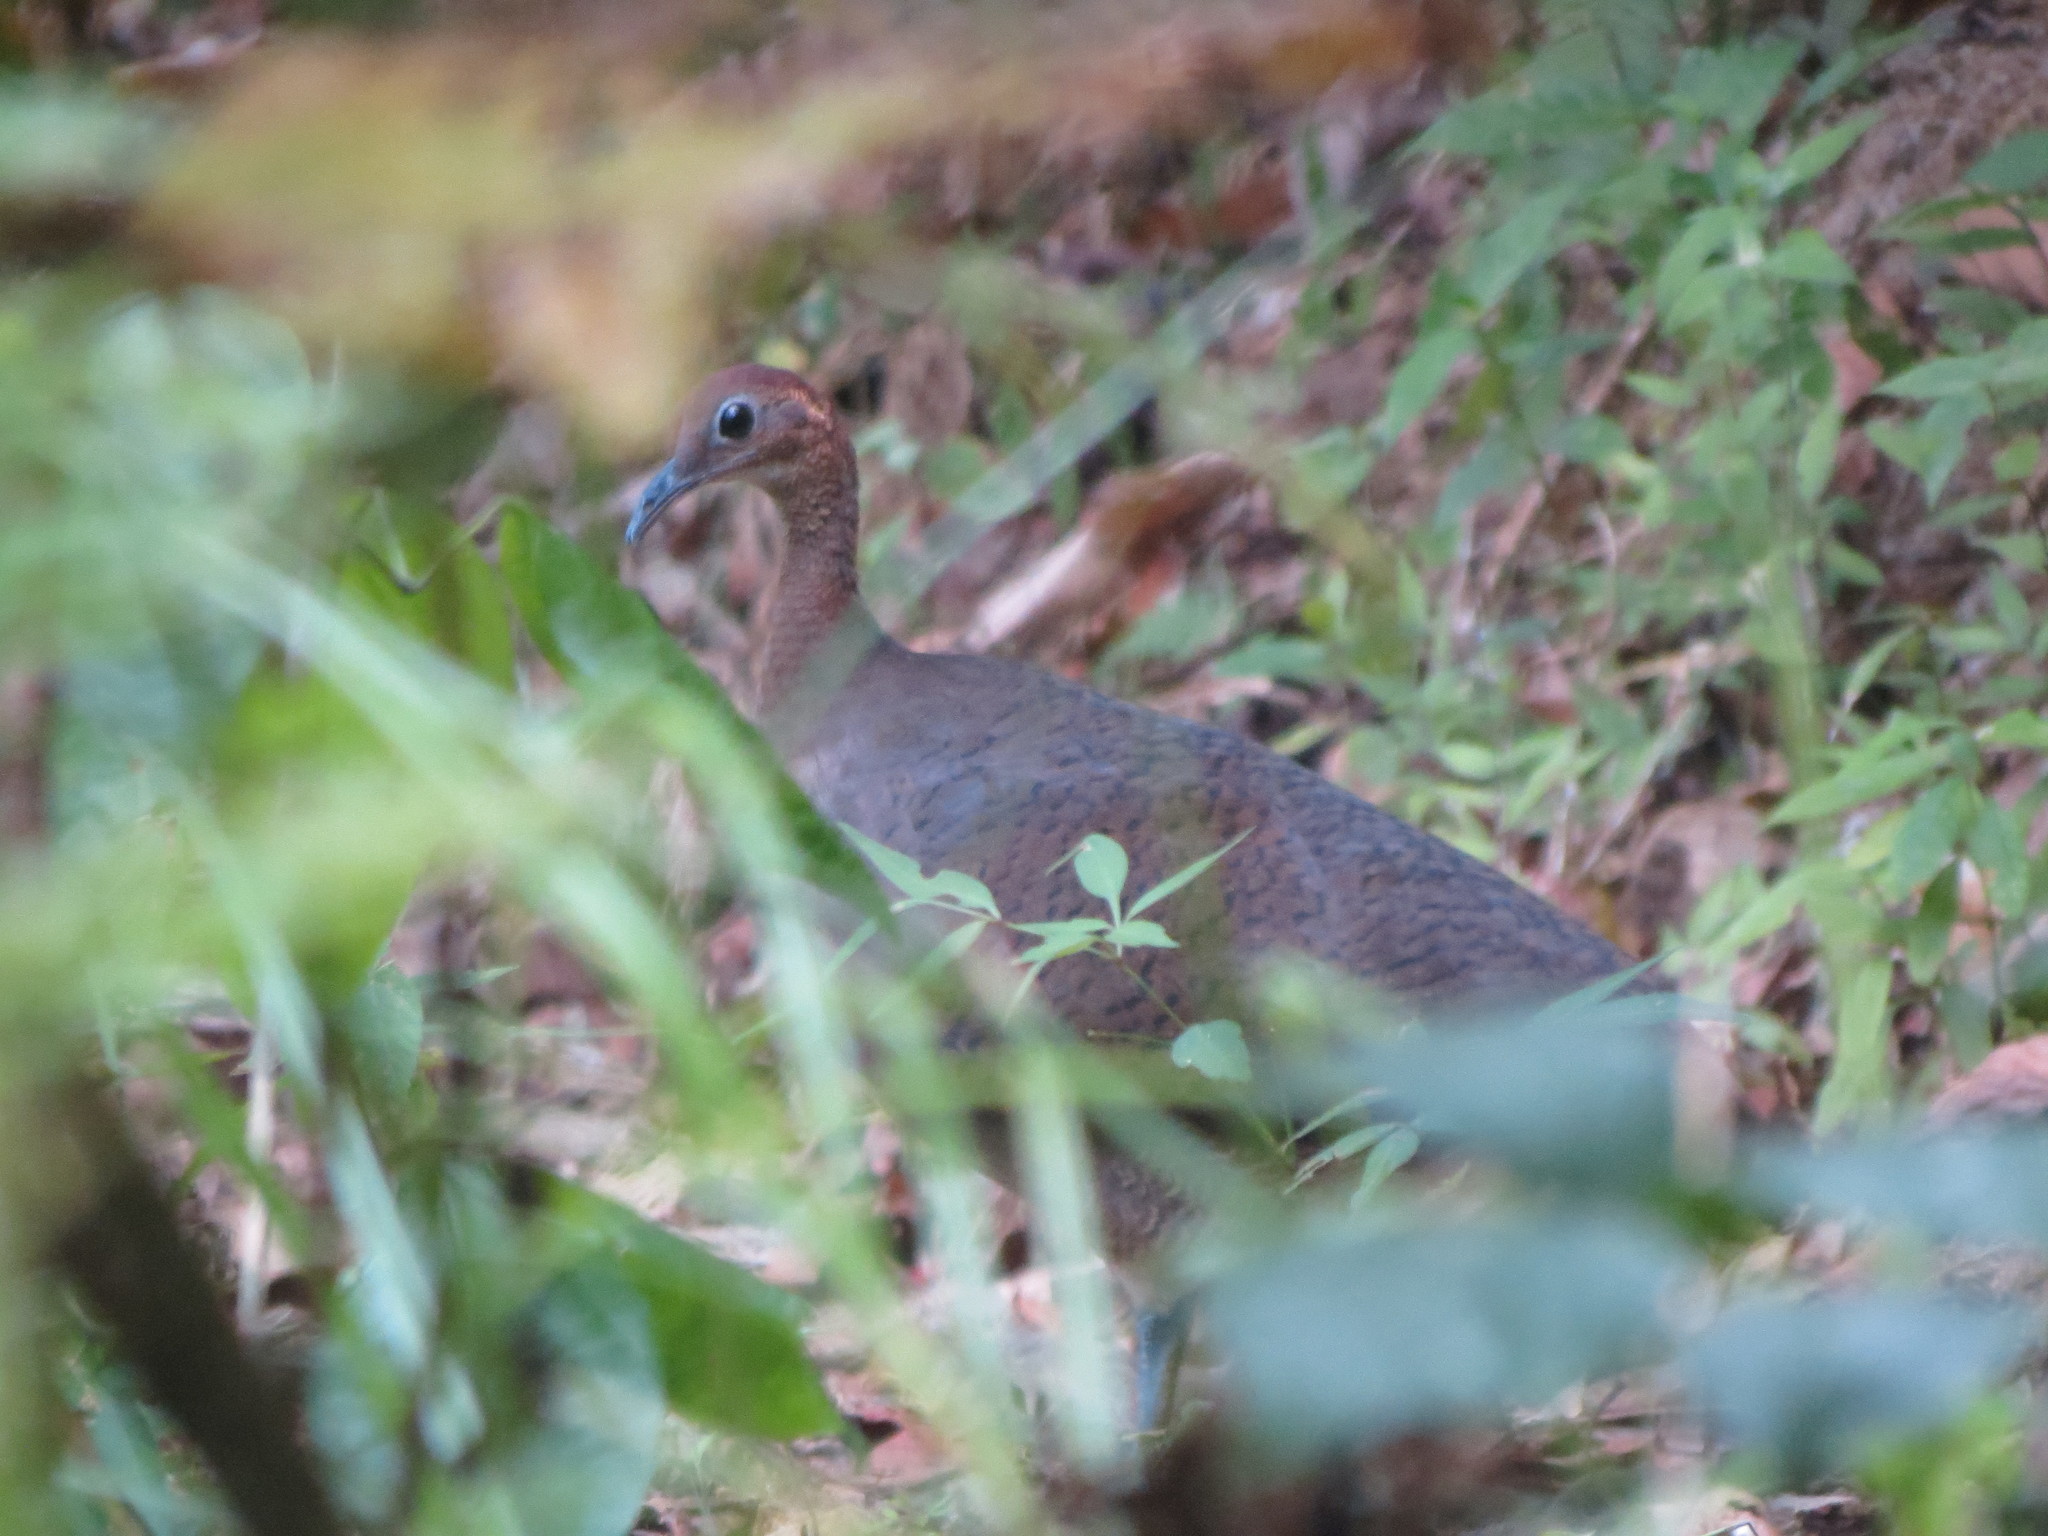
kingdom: Animalia
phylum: Chordata
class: Aves
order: Tinamiformes
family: Tinamidae
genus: Tinamus
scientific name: Tinamus major
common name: Great tinamou
